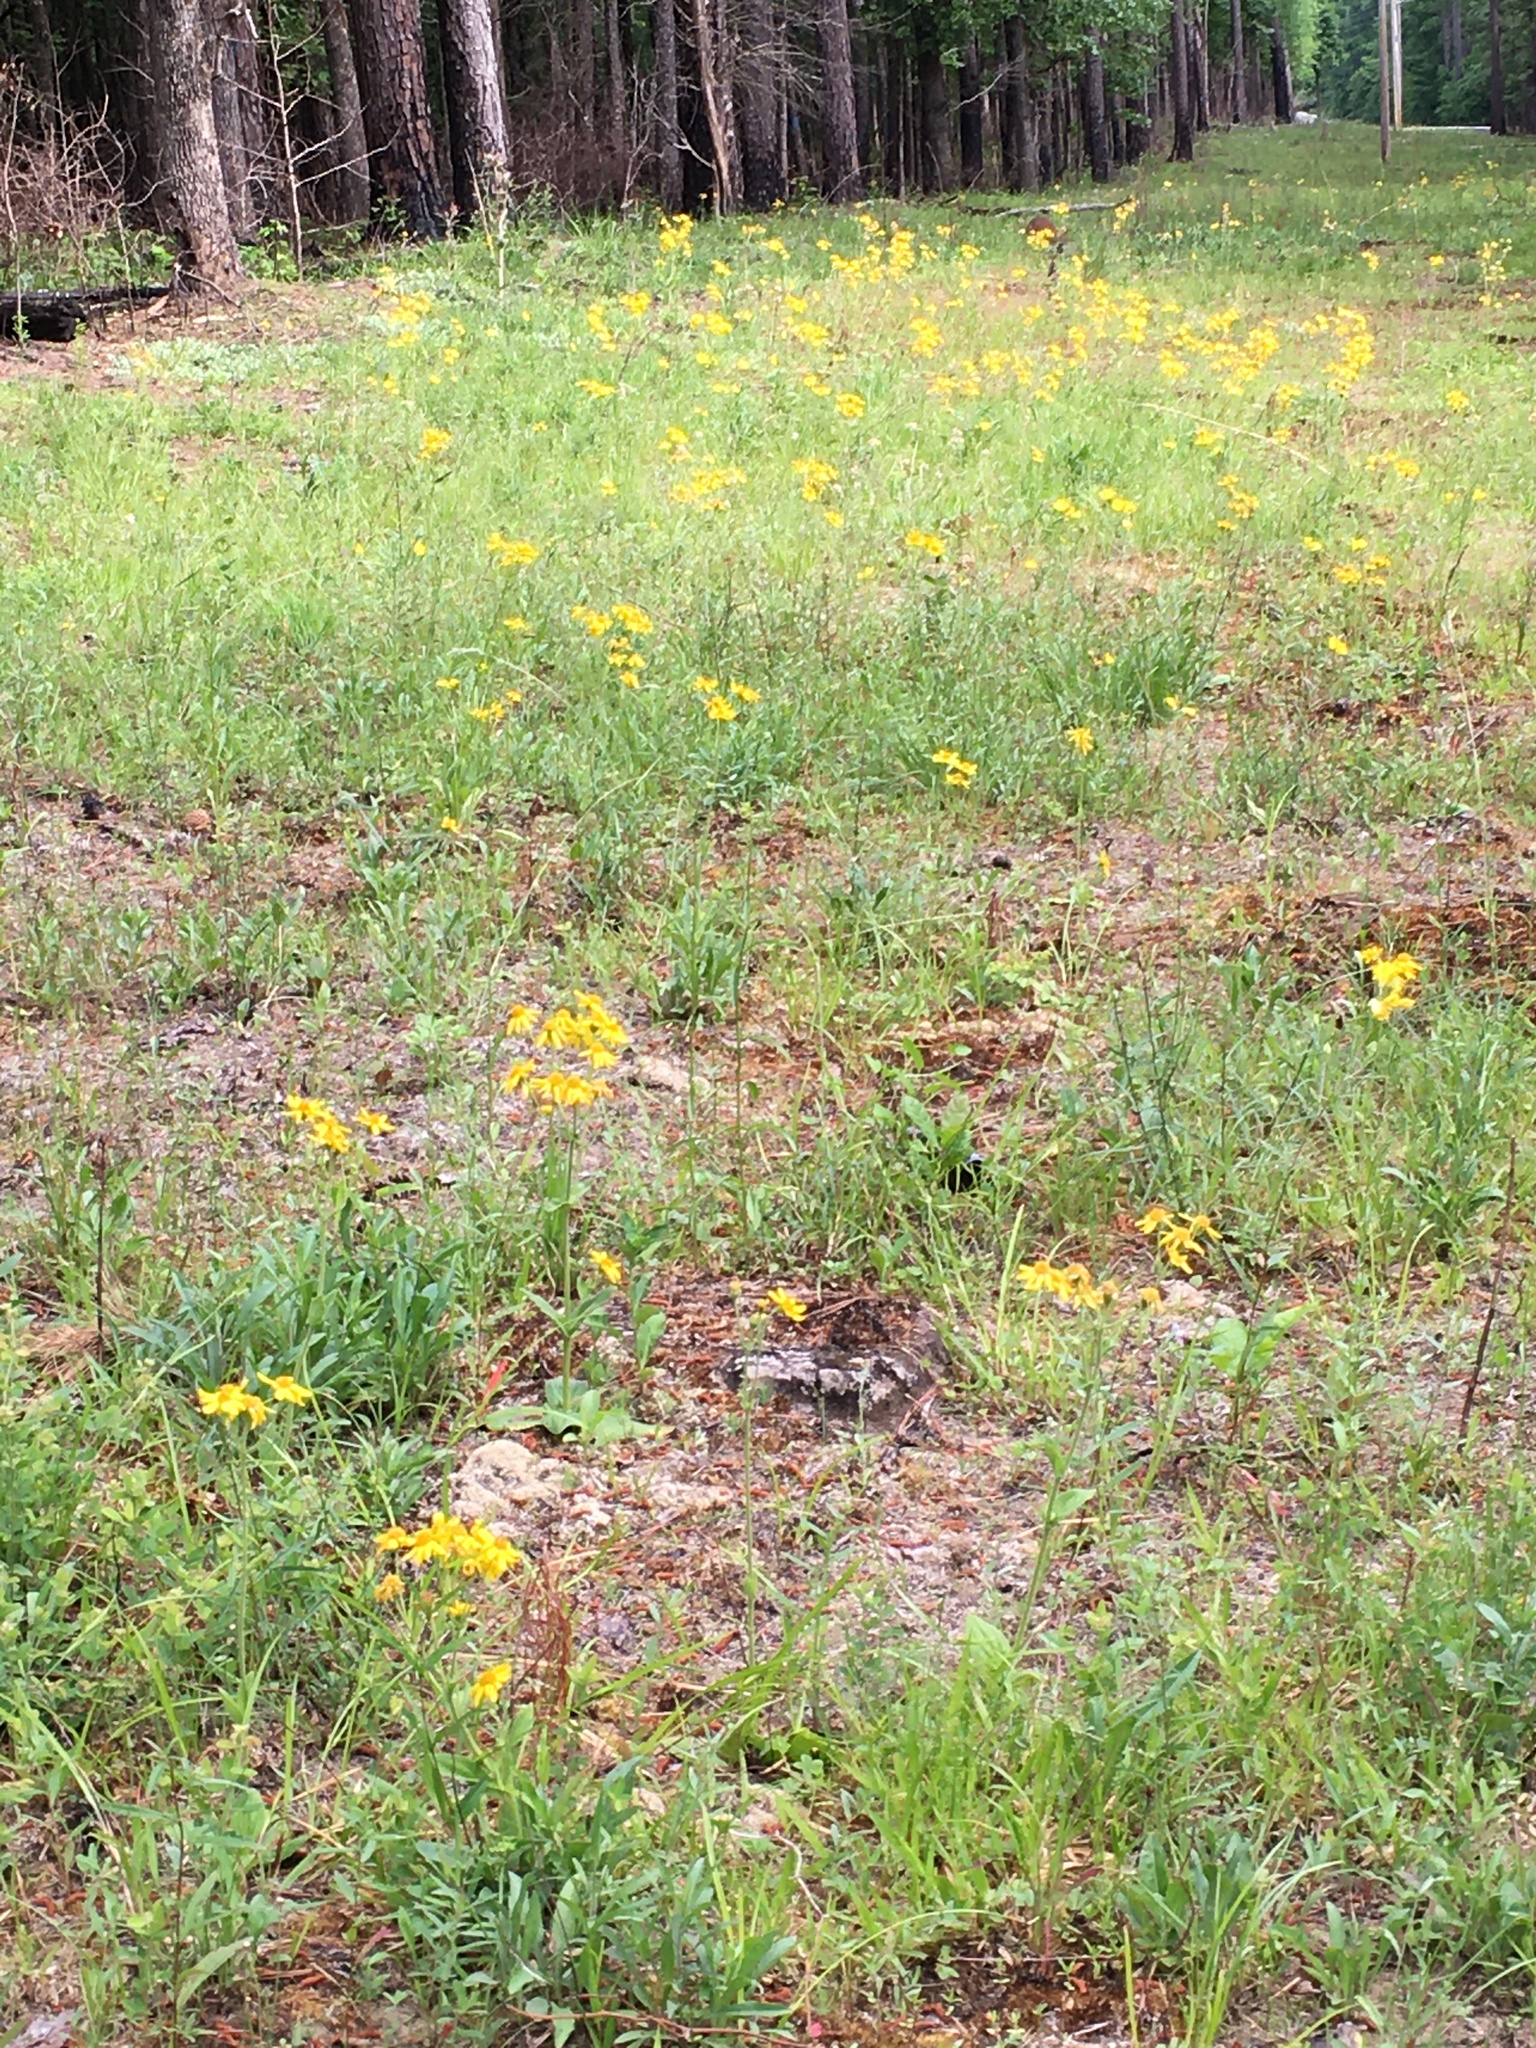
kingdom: Plantae
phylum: Tracheophyta
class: Magnoliopsida
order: Asterales
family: Asteraceae
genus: Arnica
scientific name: Arnica acaulis
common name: Common leopardbane
